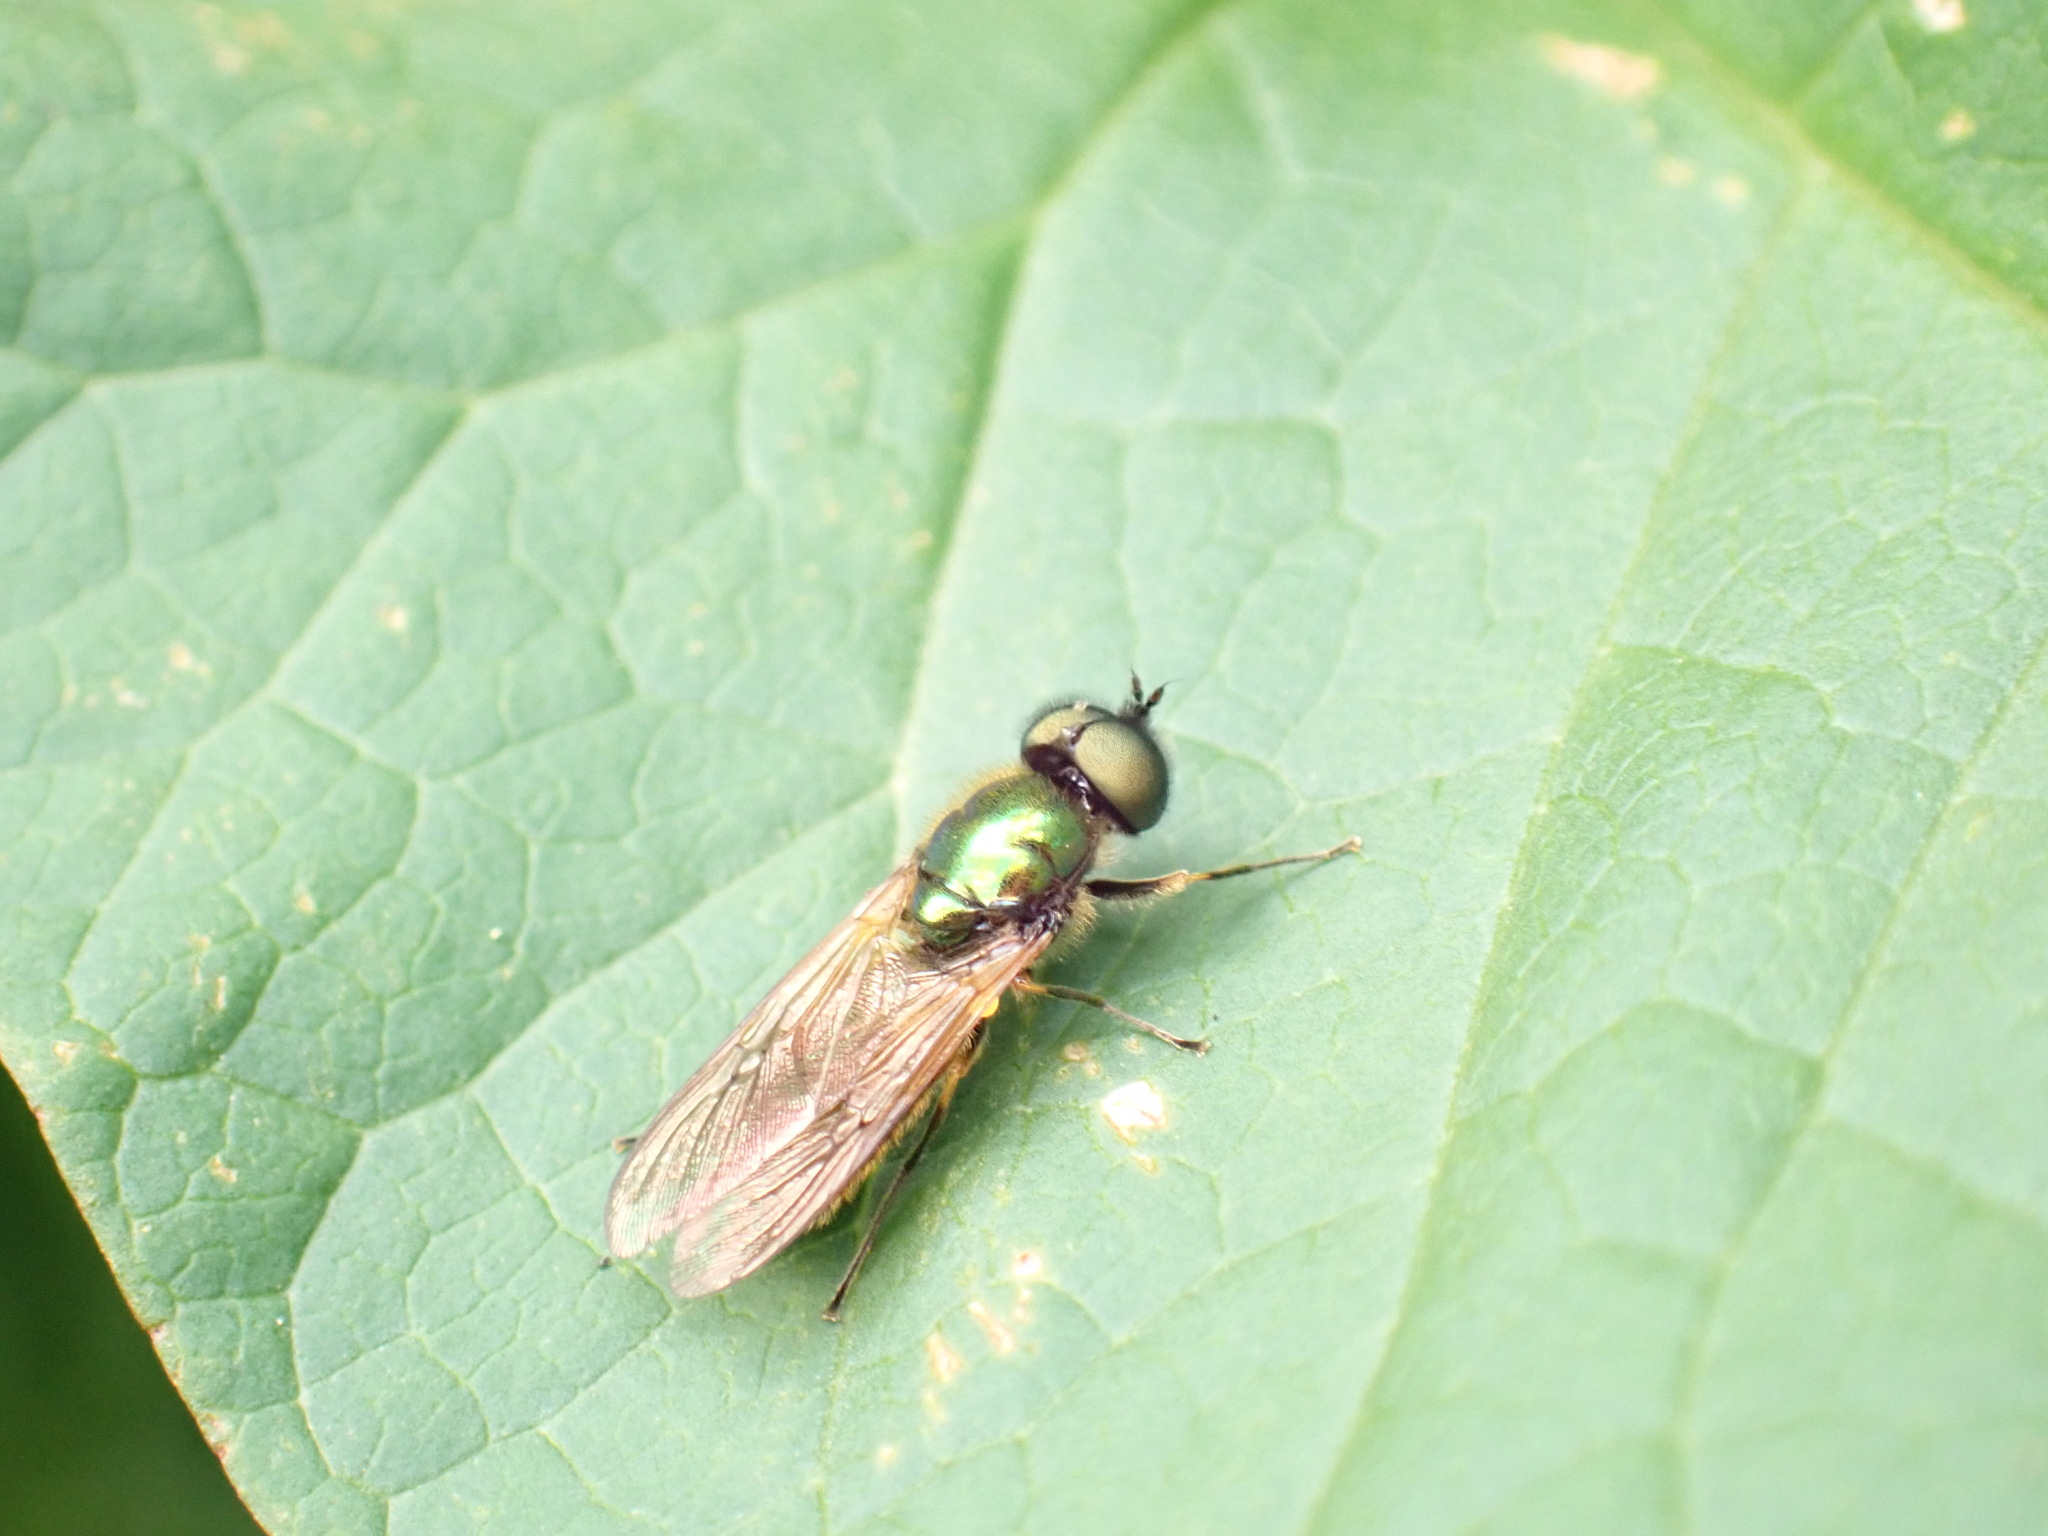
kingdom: Animalia
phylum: Arthropoda
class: Insecta
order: Diptera
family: Stratiomyidae
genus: Chloromyia
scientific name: Chloromyia formosa
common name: Soldier fly
